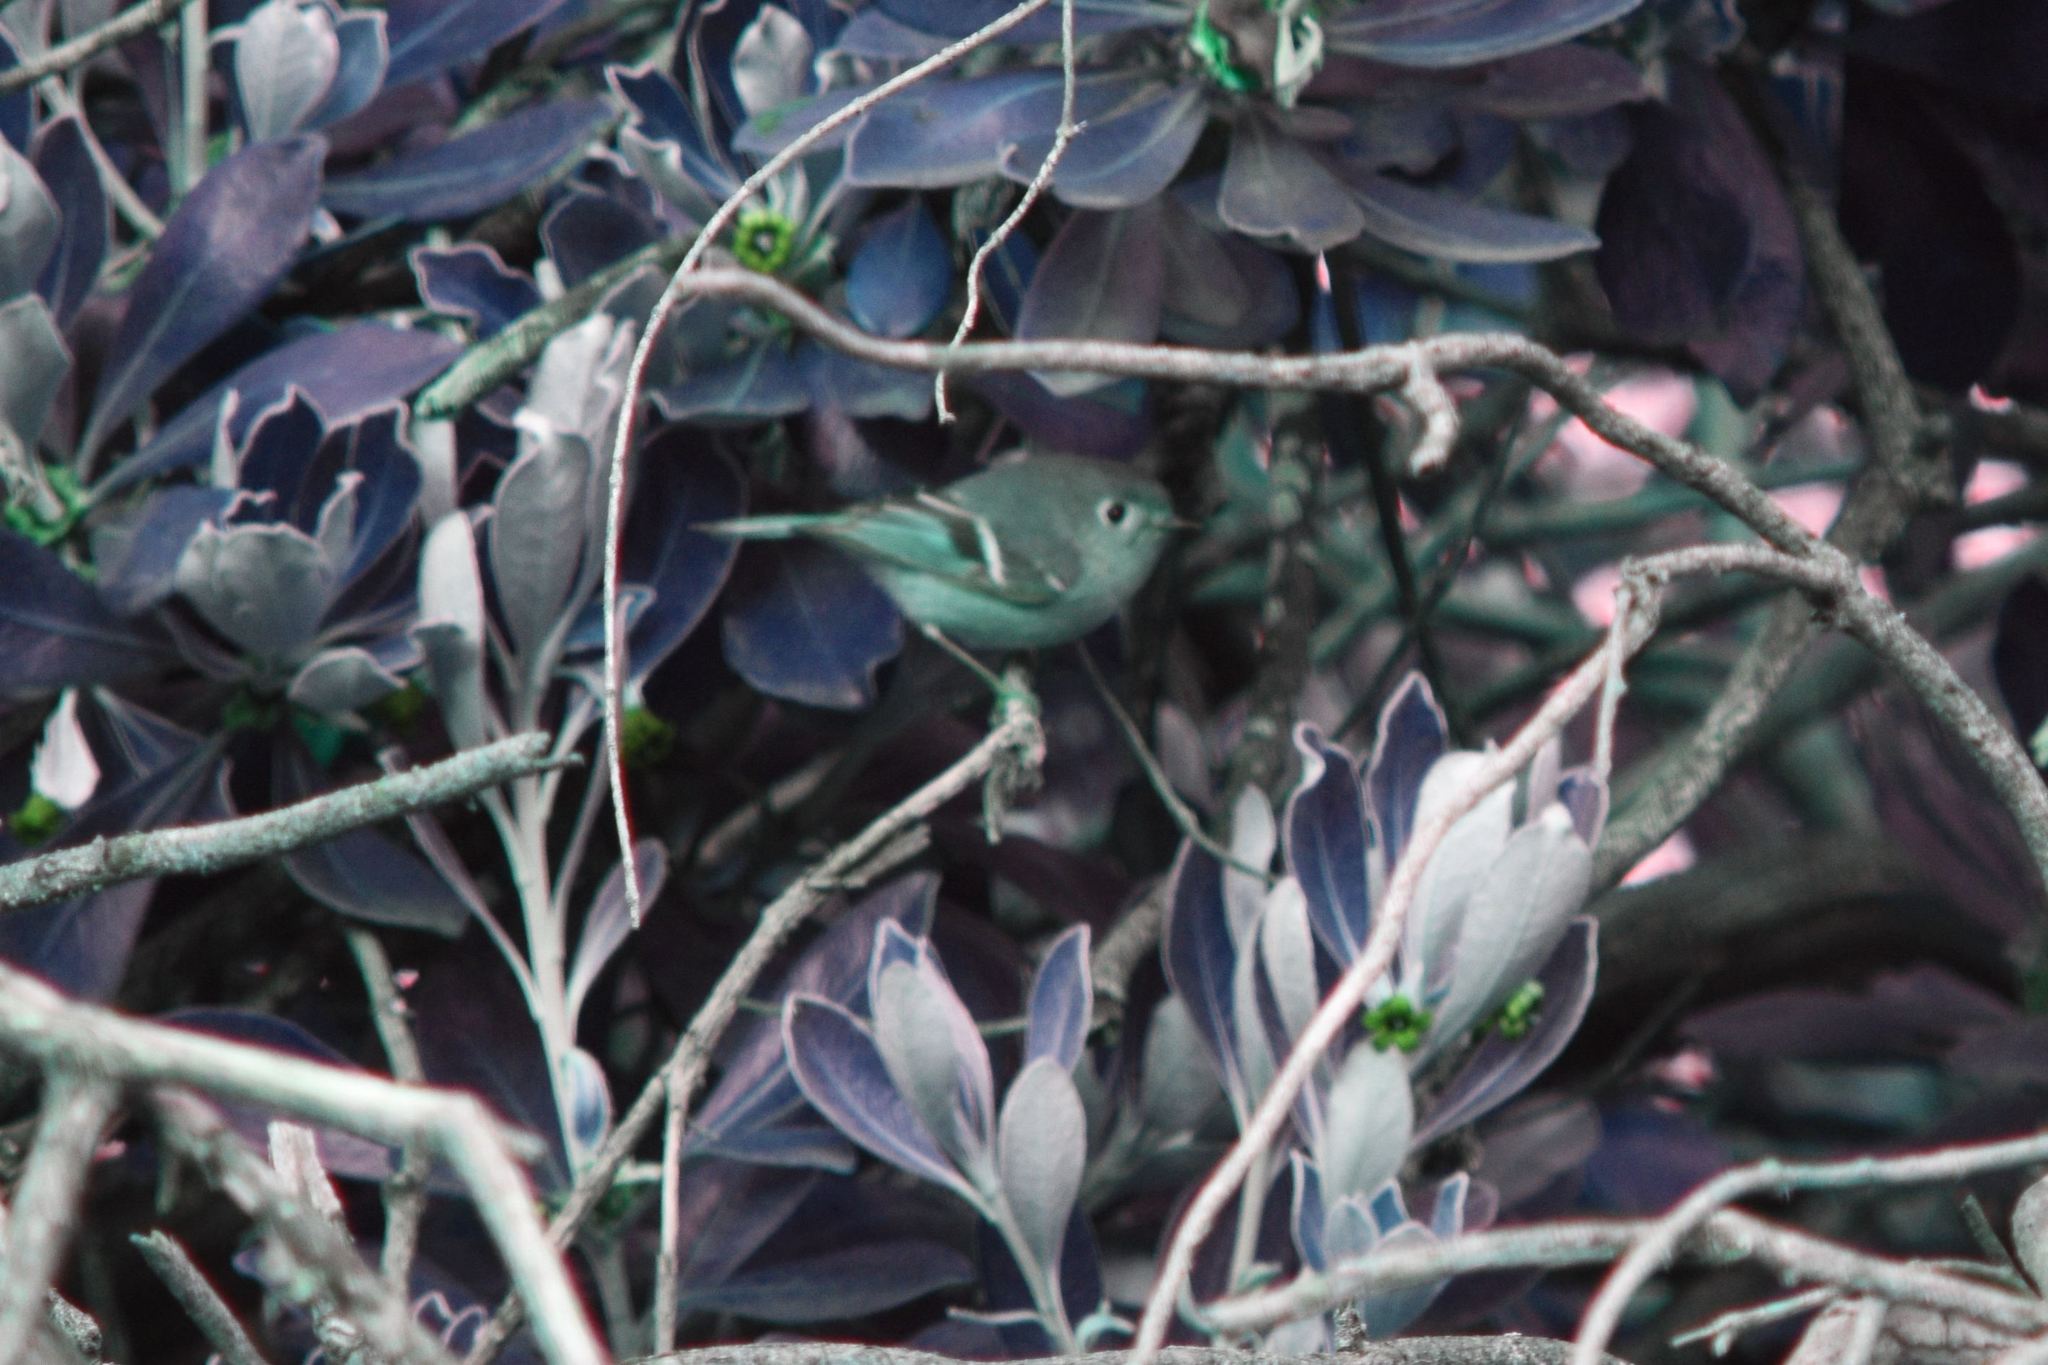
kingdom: Animalia
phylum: Chordata
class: Aves
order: Passeriformes
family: Regulidae
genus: Regulus
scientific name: Regulus calendula
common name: Ruby-crowned kinglet
